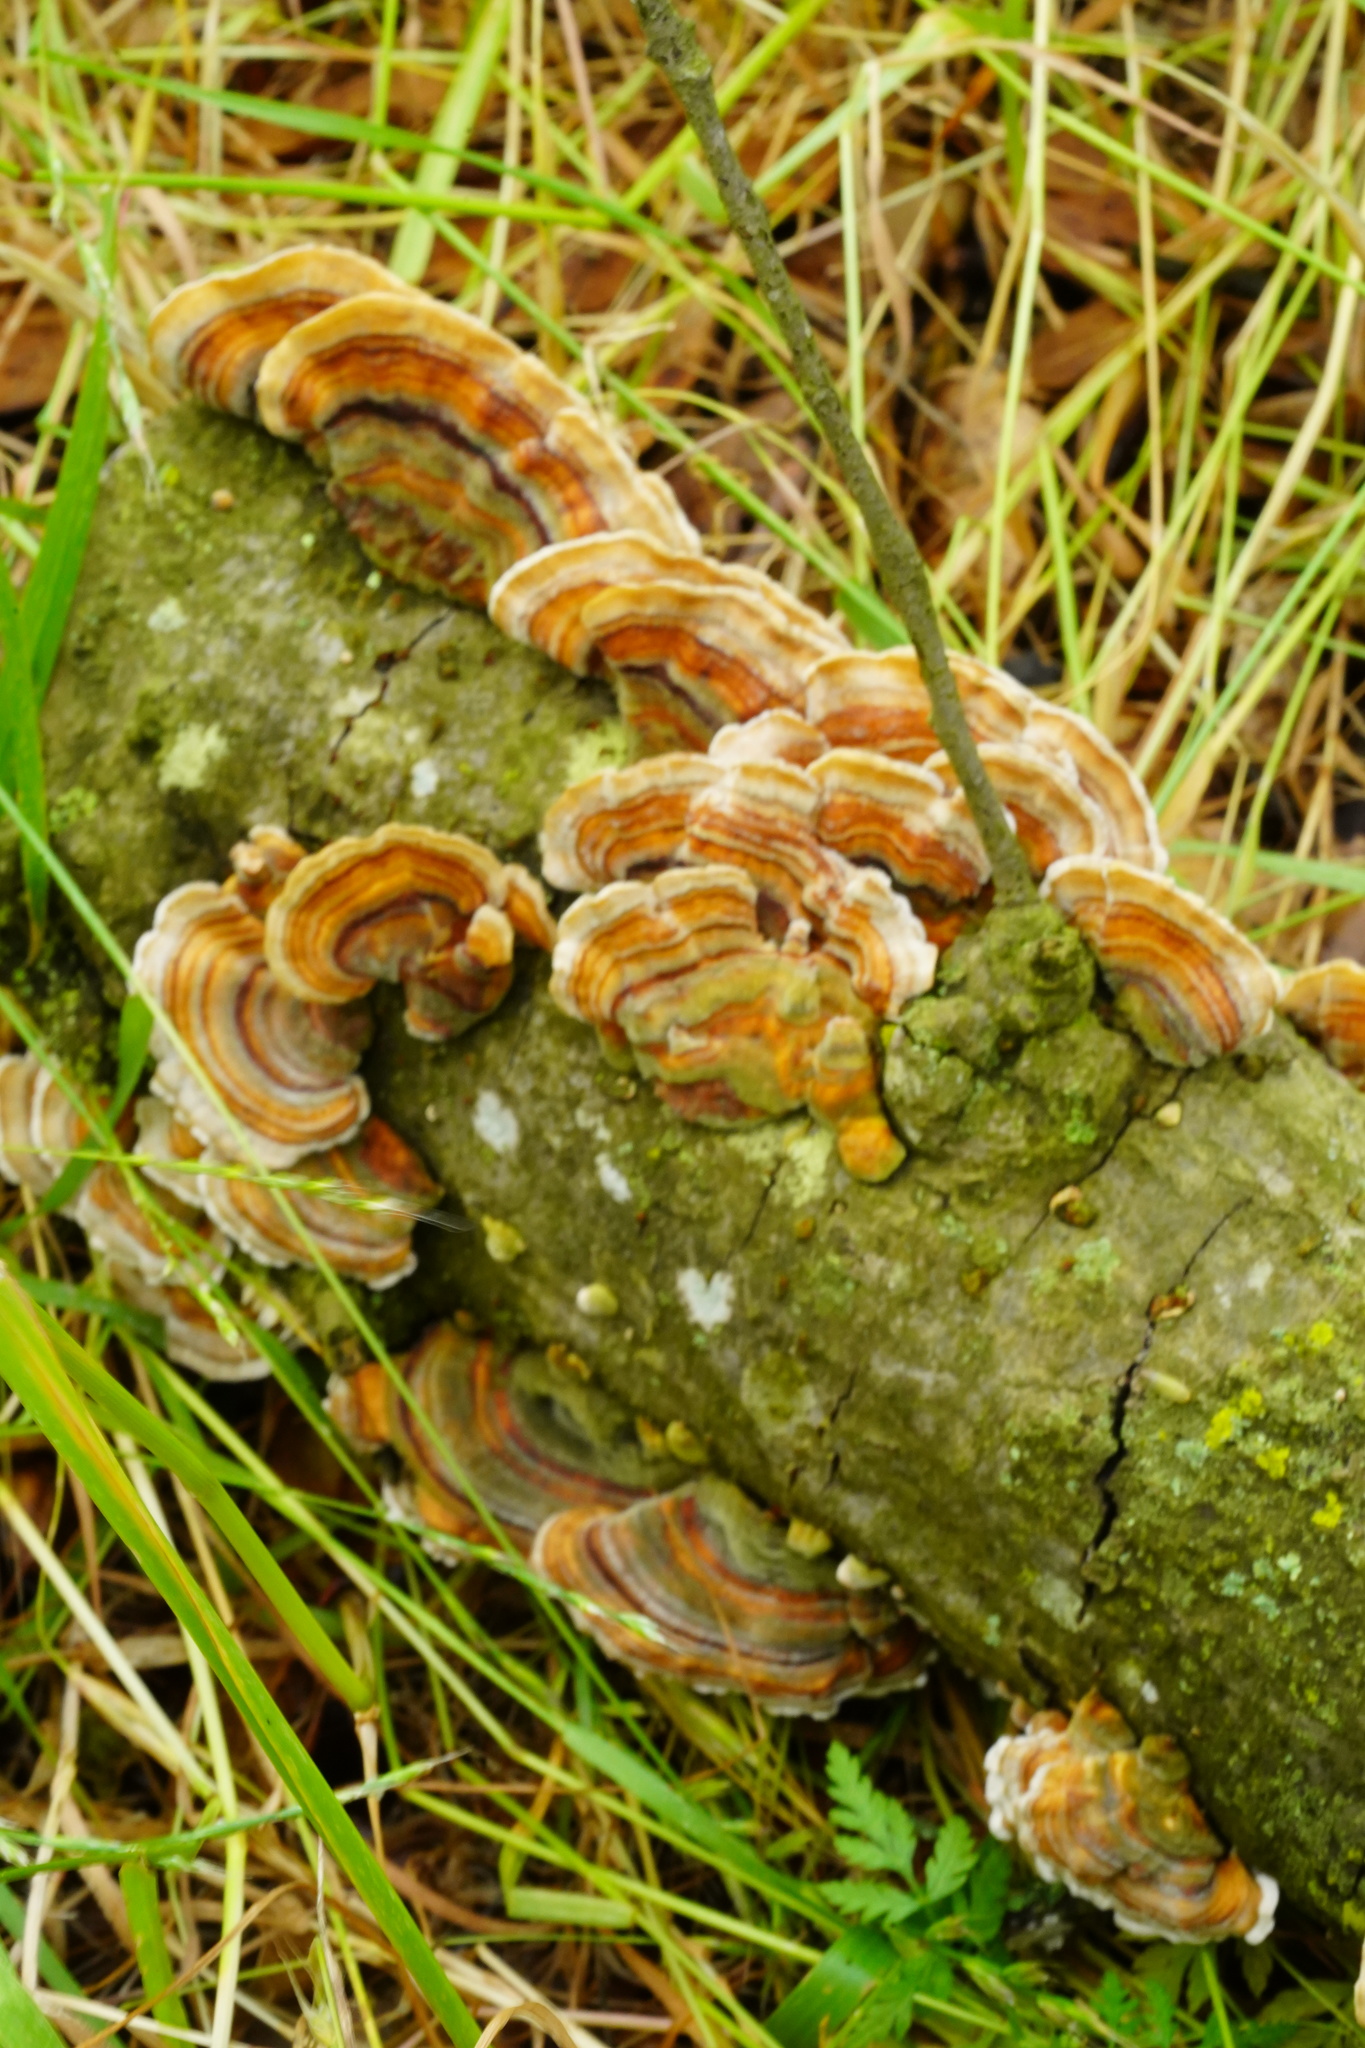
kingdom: Fungi
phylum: Basidiomycota
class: Agaricomycetes
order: Polyporales
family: Polyporaceae
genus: Trametes
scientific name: Trametes versicolor
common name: Turkeytail
